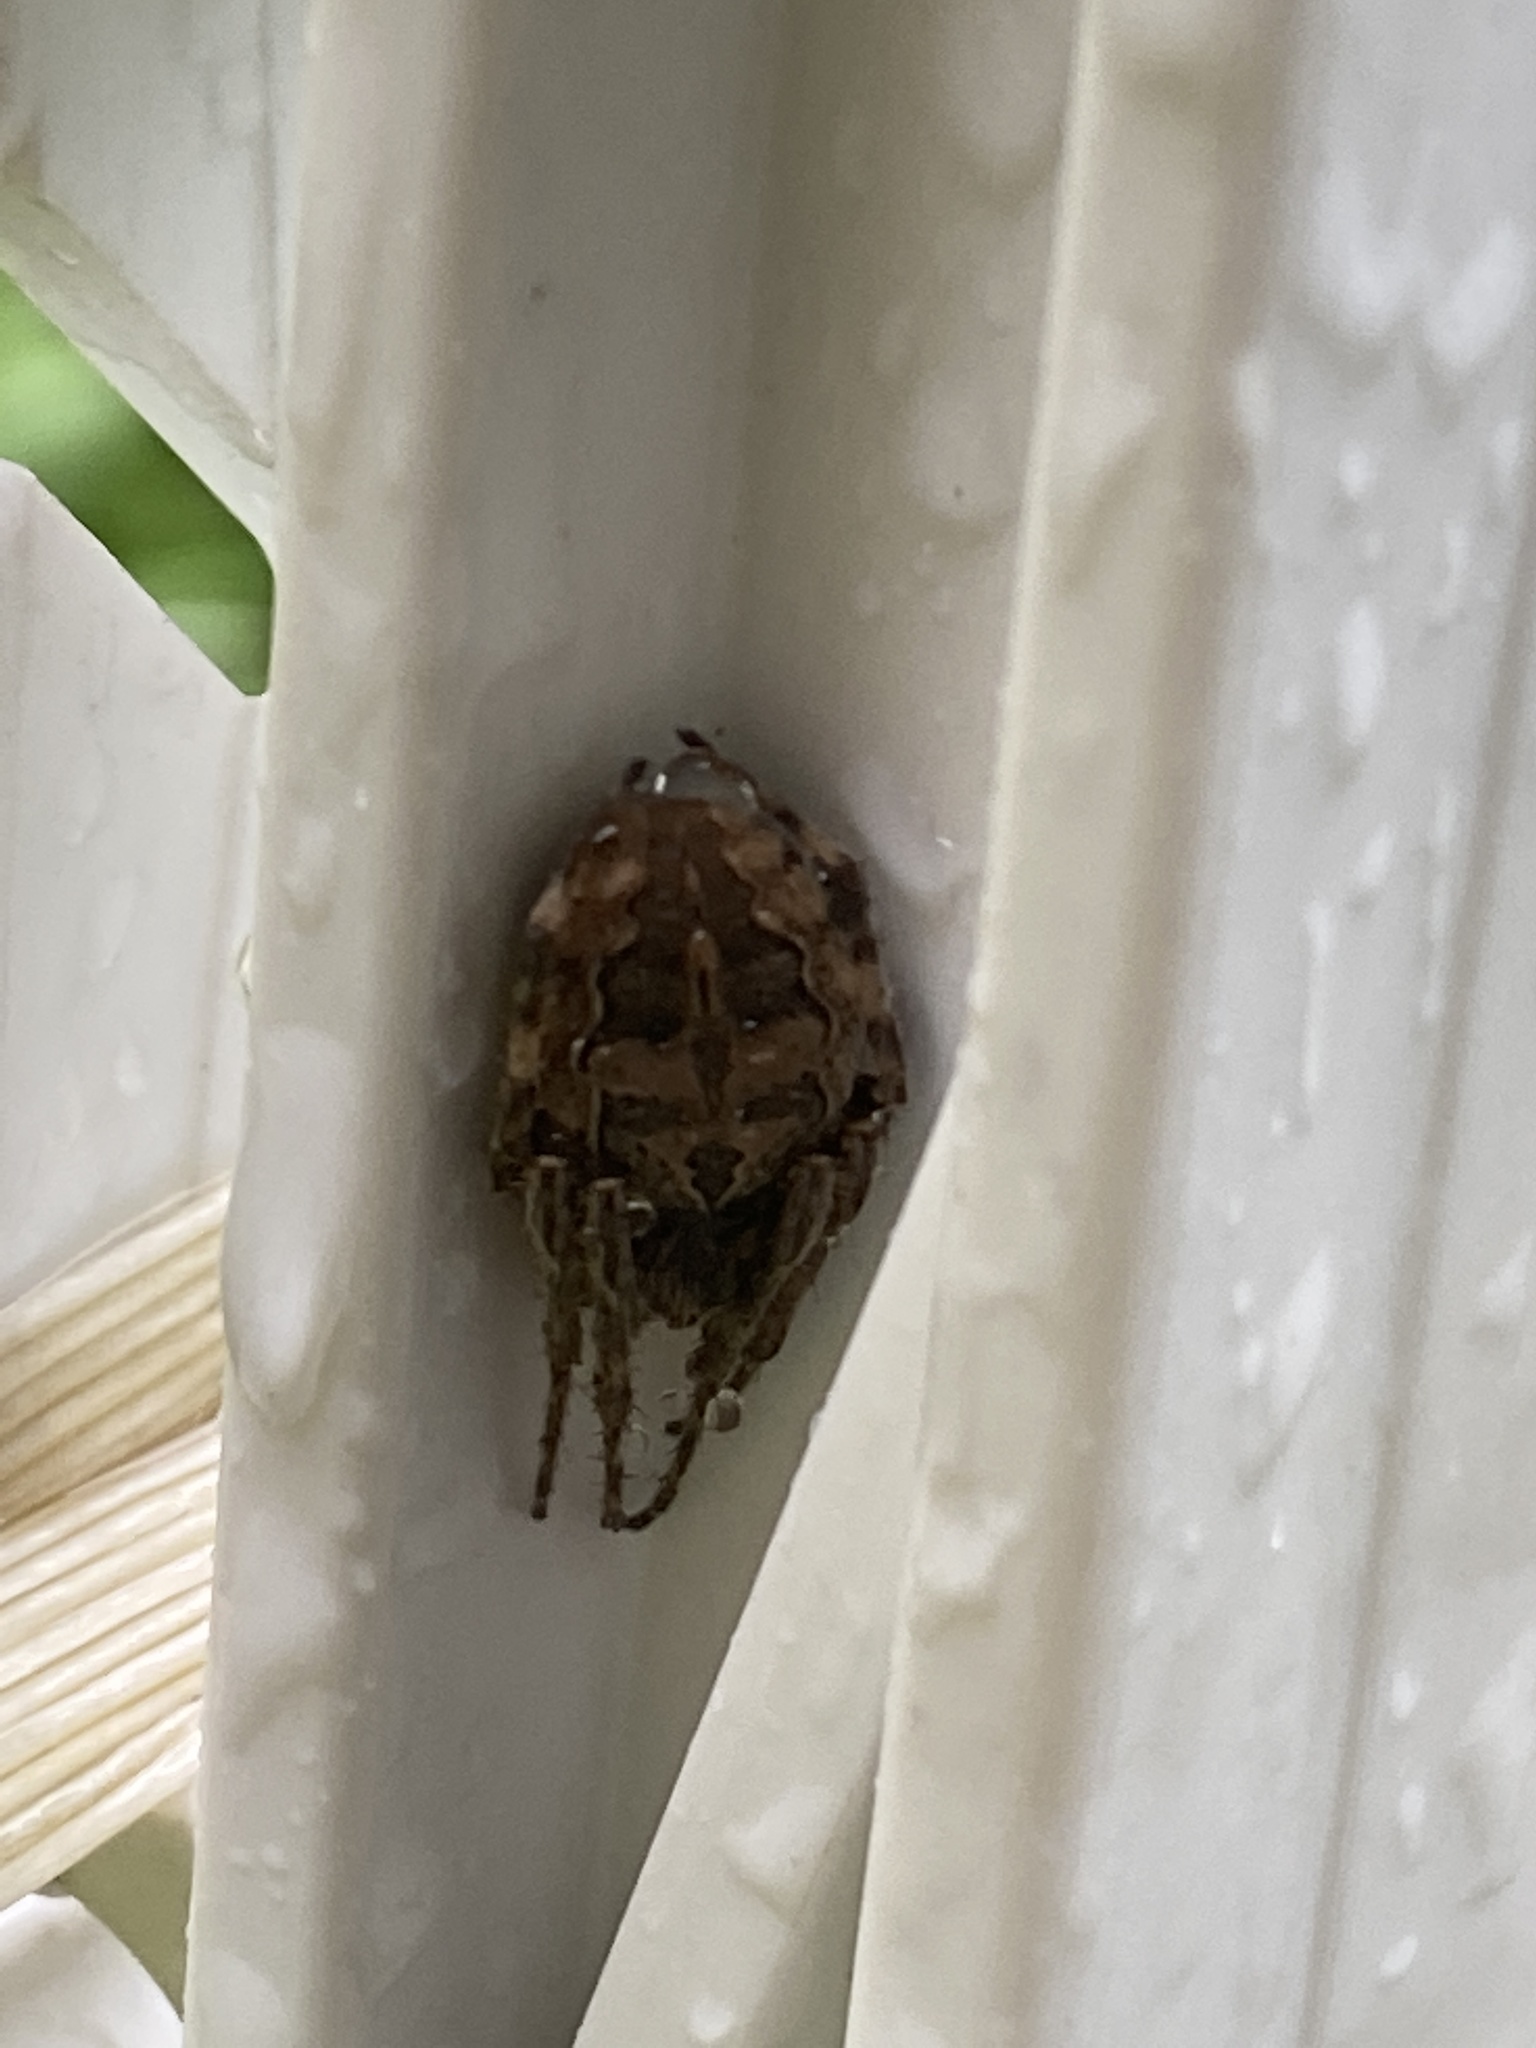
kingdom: Animalia
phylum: Arthropoda
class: Arachnida
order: Araneae
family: Araneidae
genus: Larinioides
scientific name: Larinioides sclopetarius
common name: Bridge orbweaver
